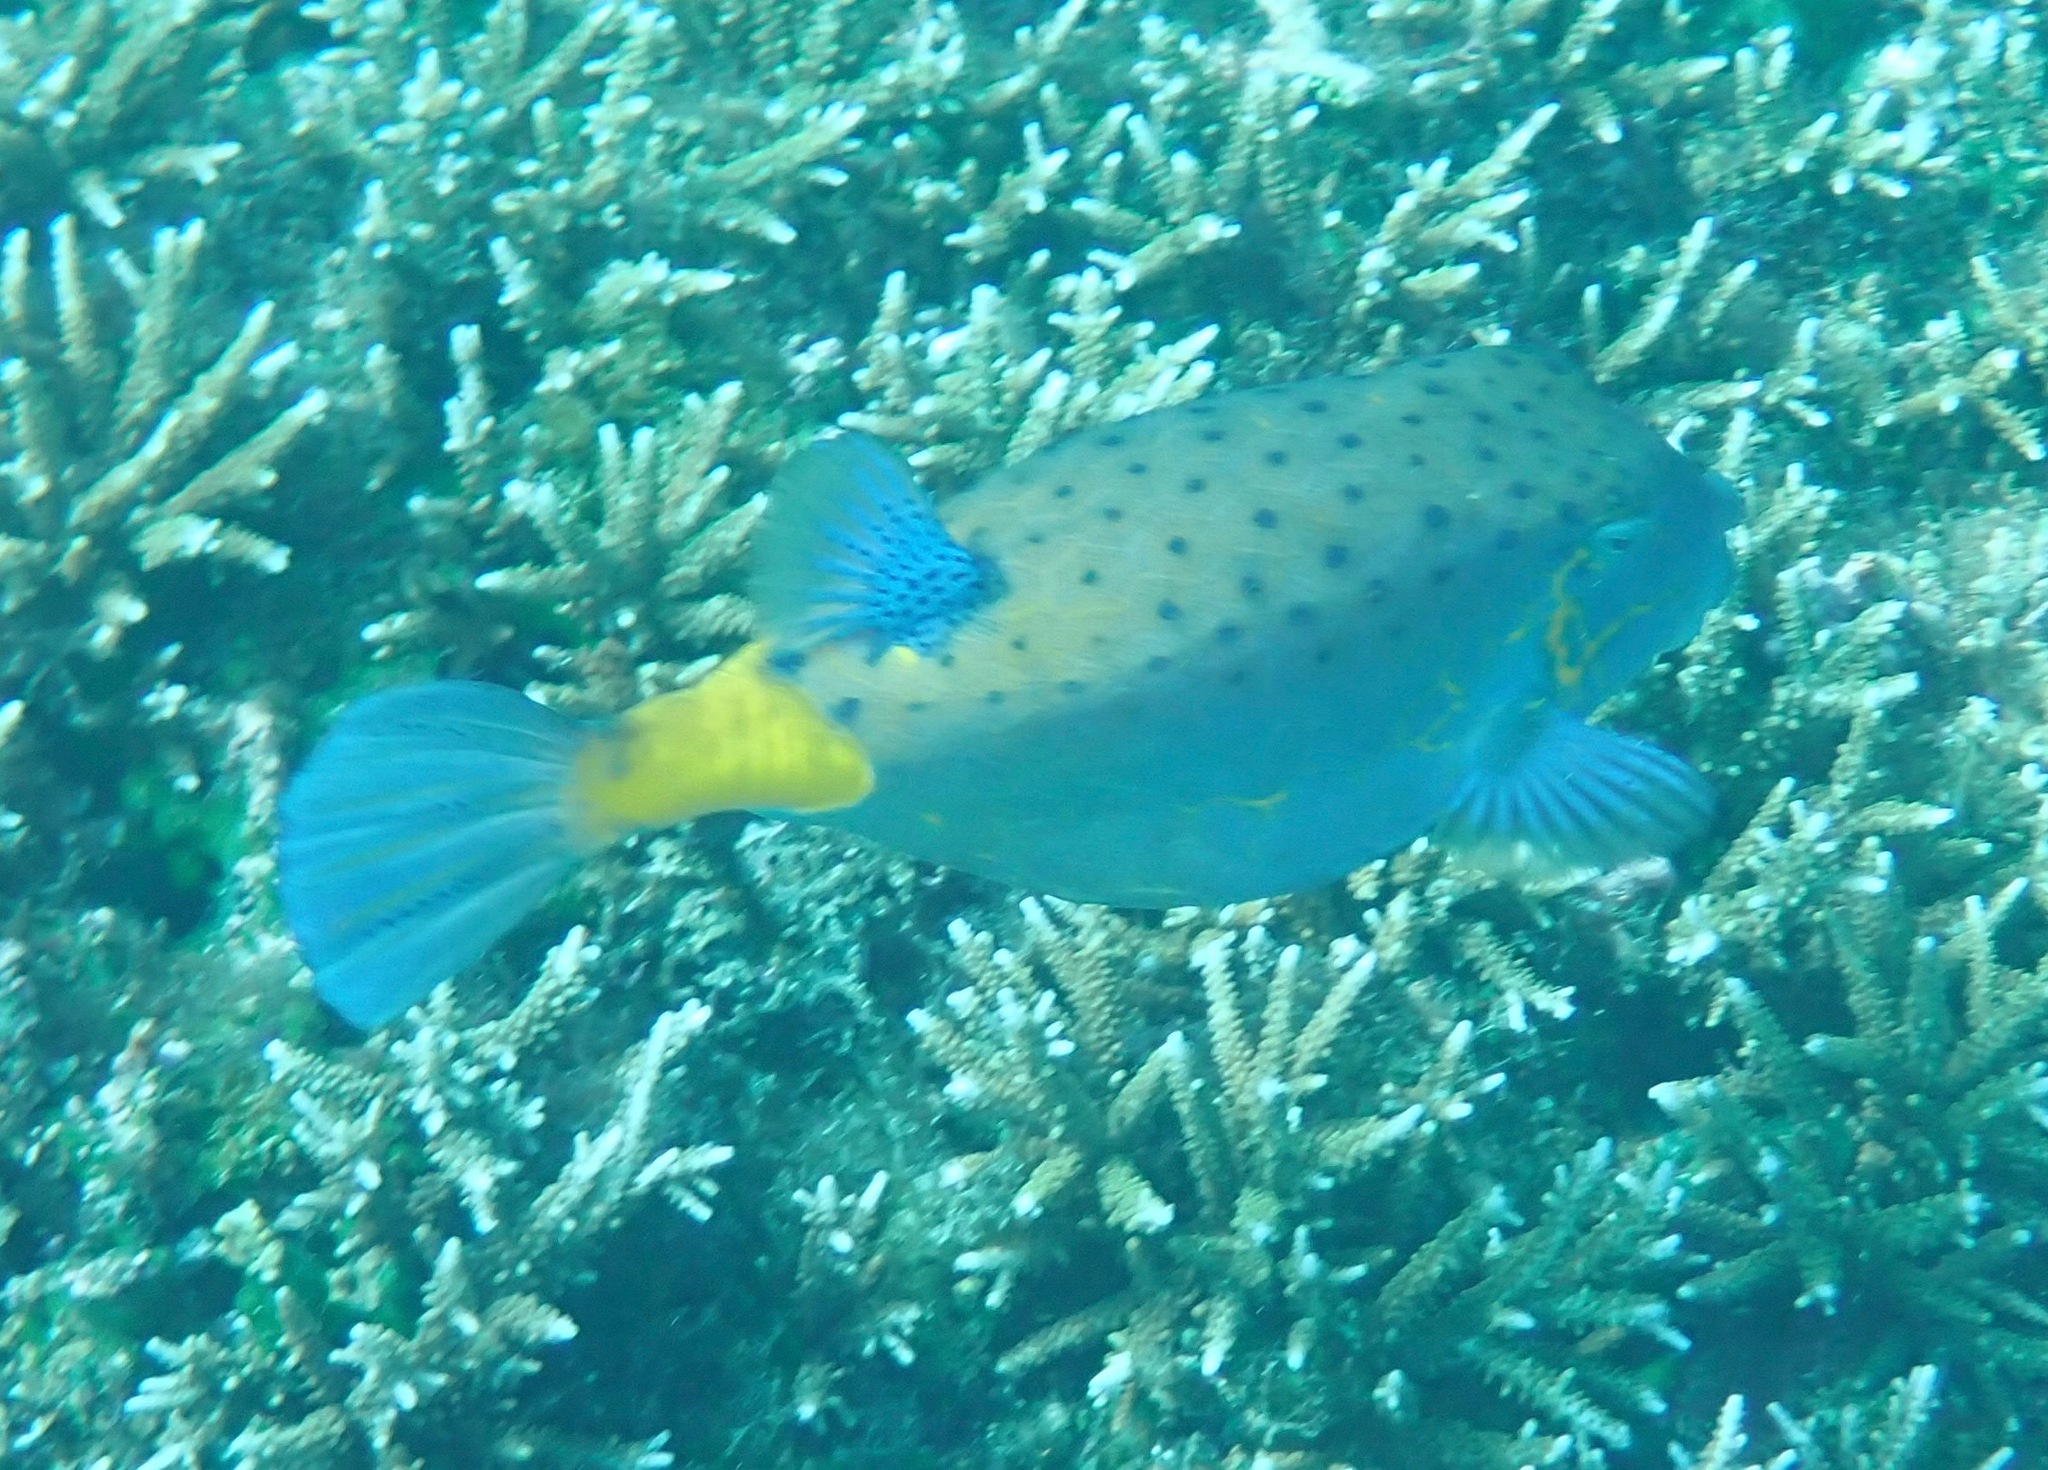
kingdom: Animalia
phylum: Chordata
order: Tetraodontiformes
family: Ostraciidae
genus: Ostracion
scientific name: Ostracion cubicus
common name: Cube trunkfish
